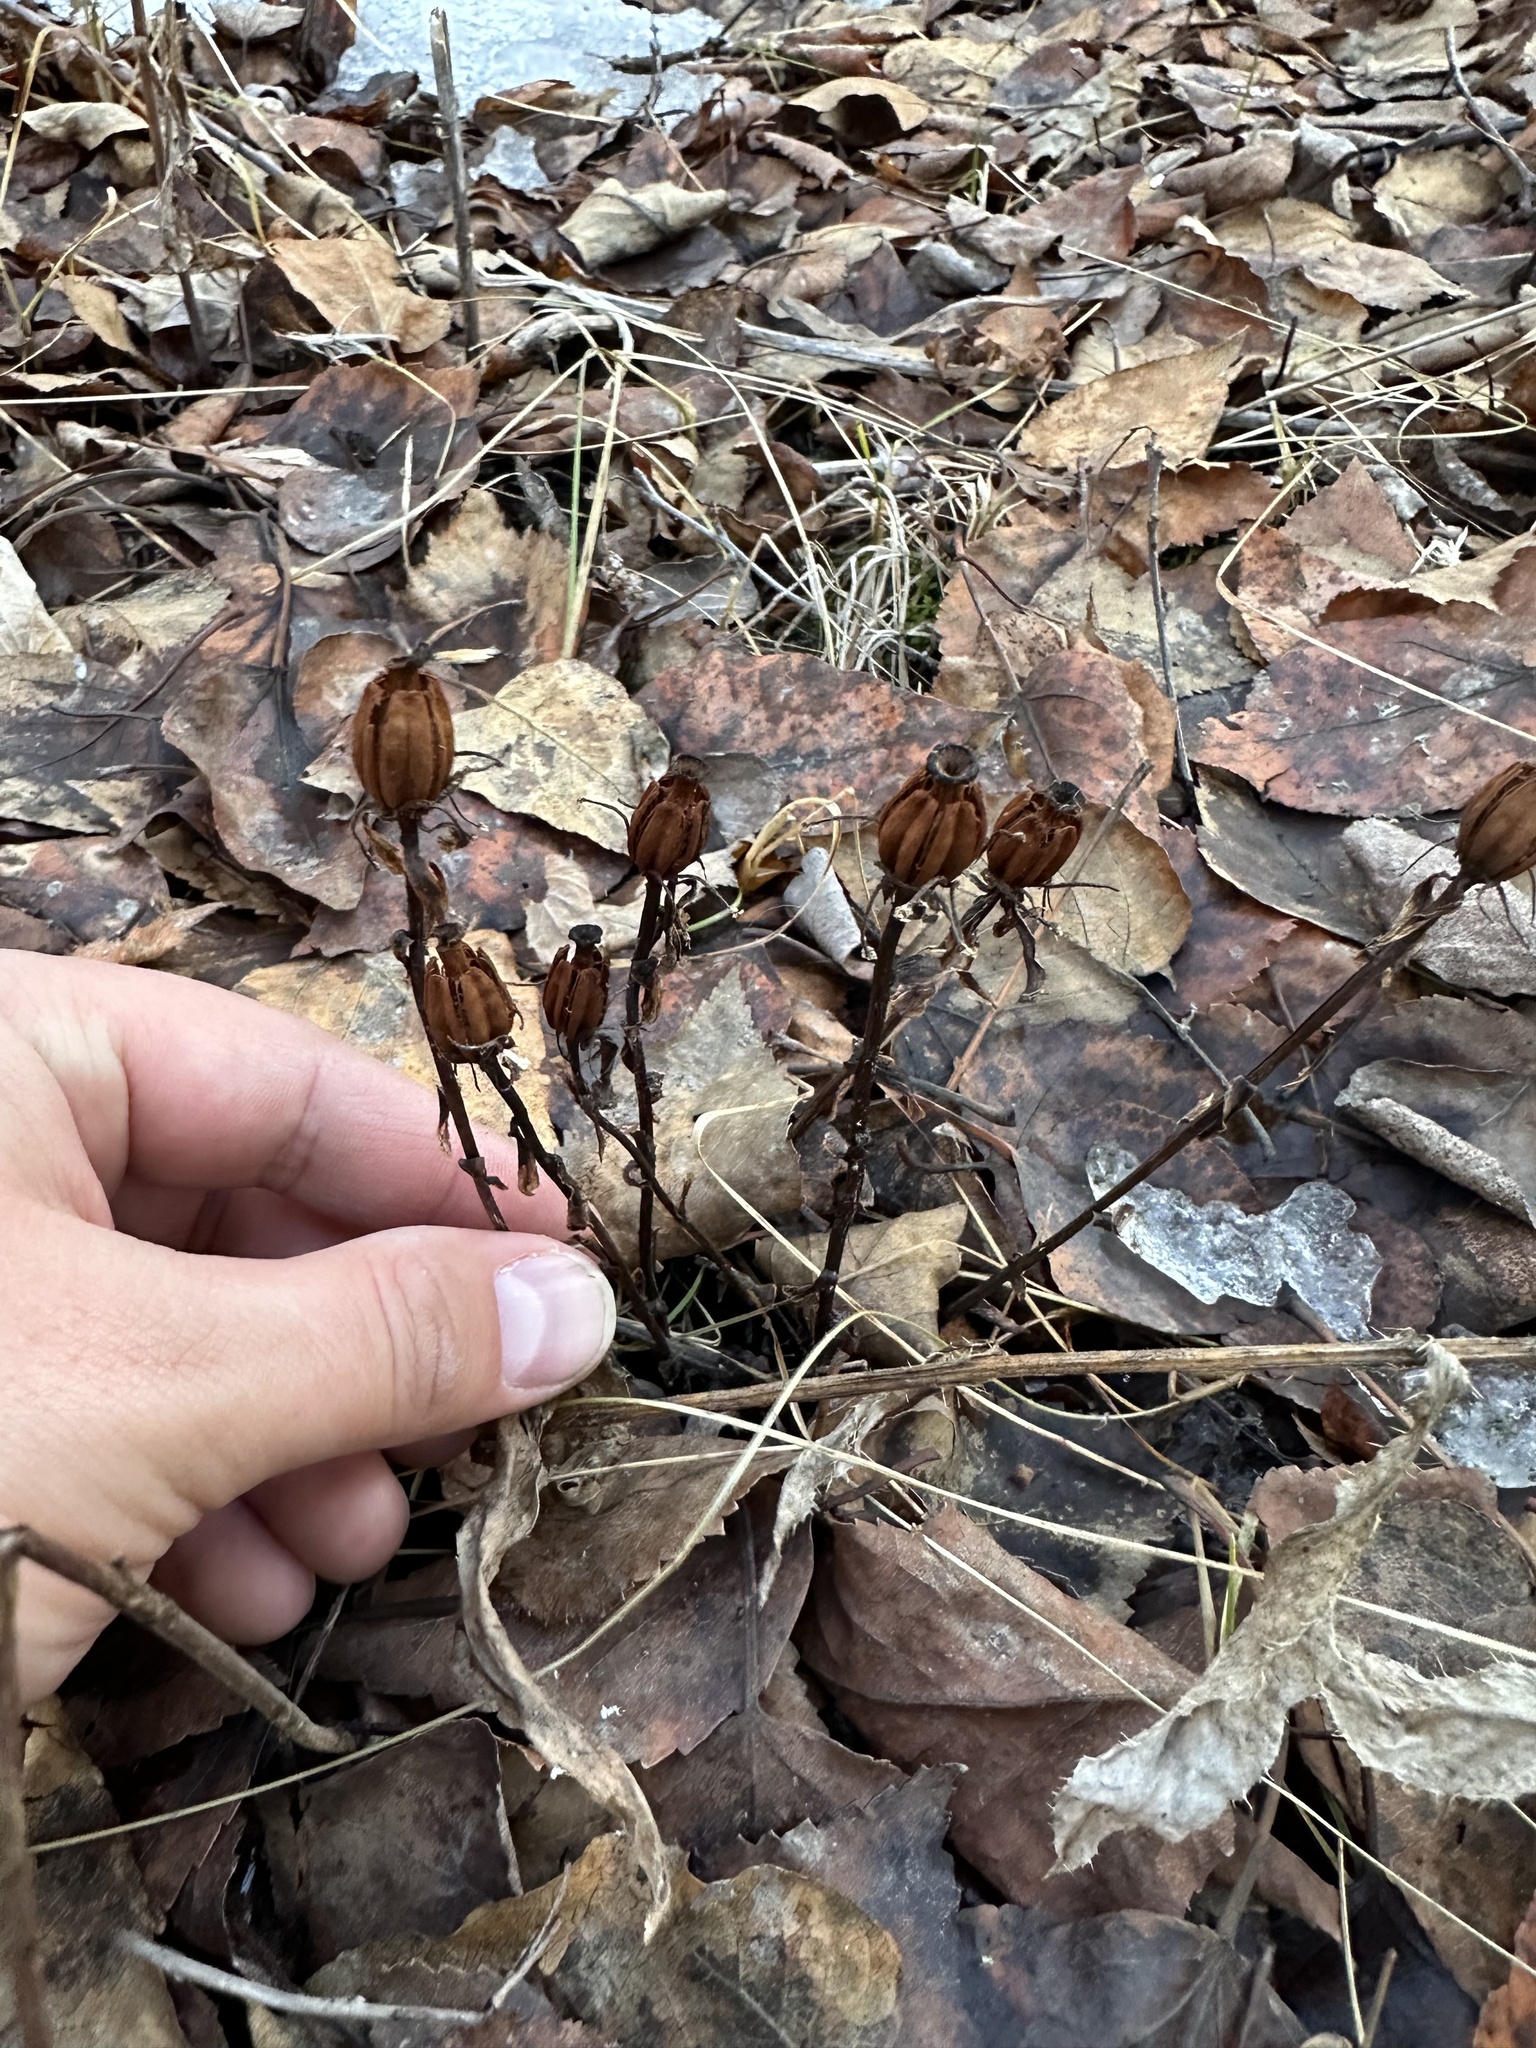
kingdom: Plantae
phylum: Tracheophyta
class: Magnoliopsida
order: Ericales
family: Ericaceae
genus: Monotropa
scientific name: Monotropa uniflora
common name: Convulsion root
